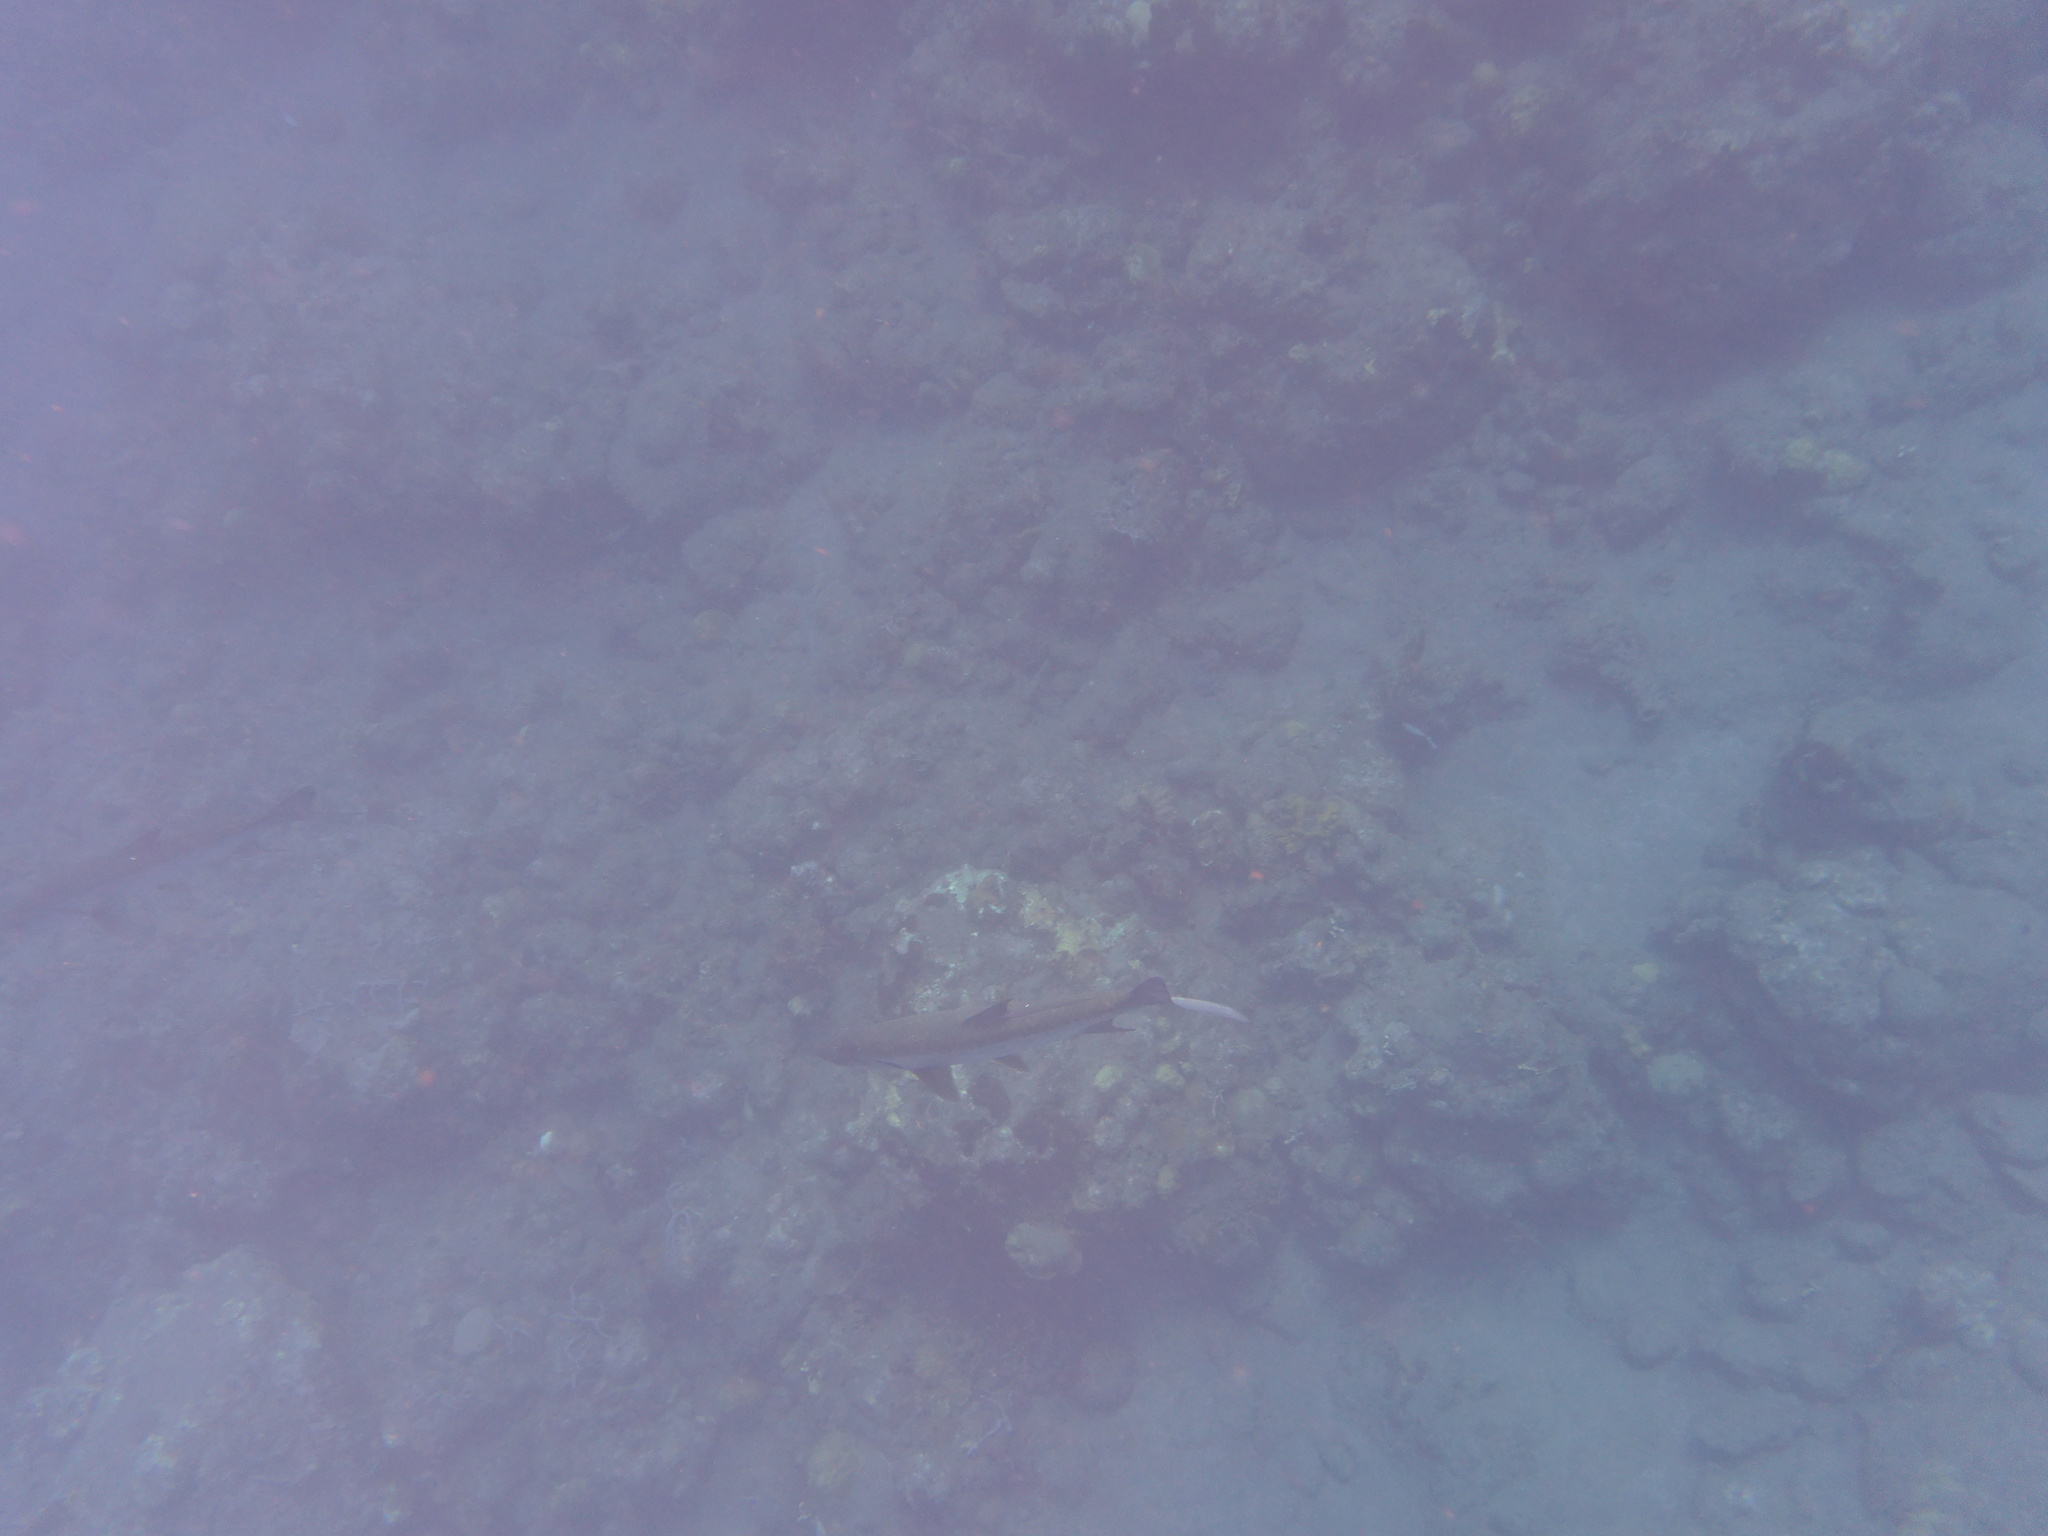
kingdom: Animalia
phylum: Chordata
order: Elopiformes
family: Megalopidae
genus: Megalops
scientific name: Megalops atlanticus
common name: Tarpon
